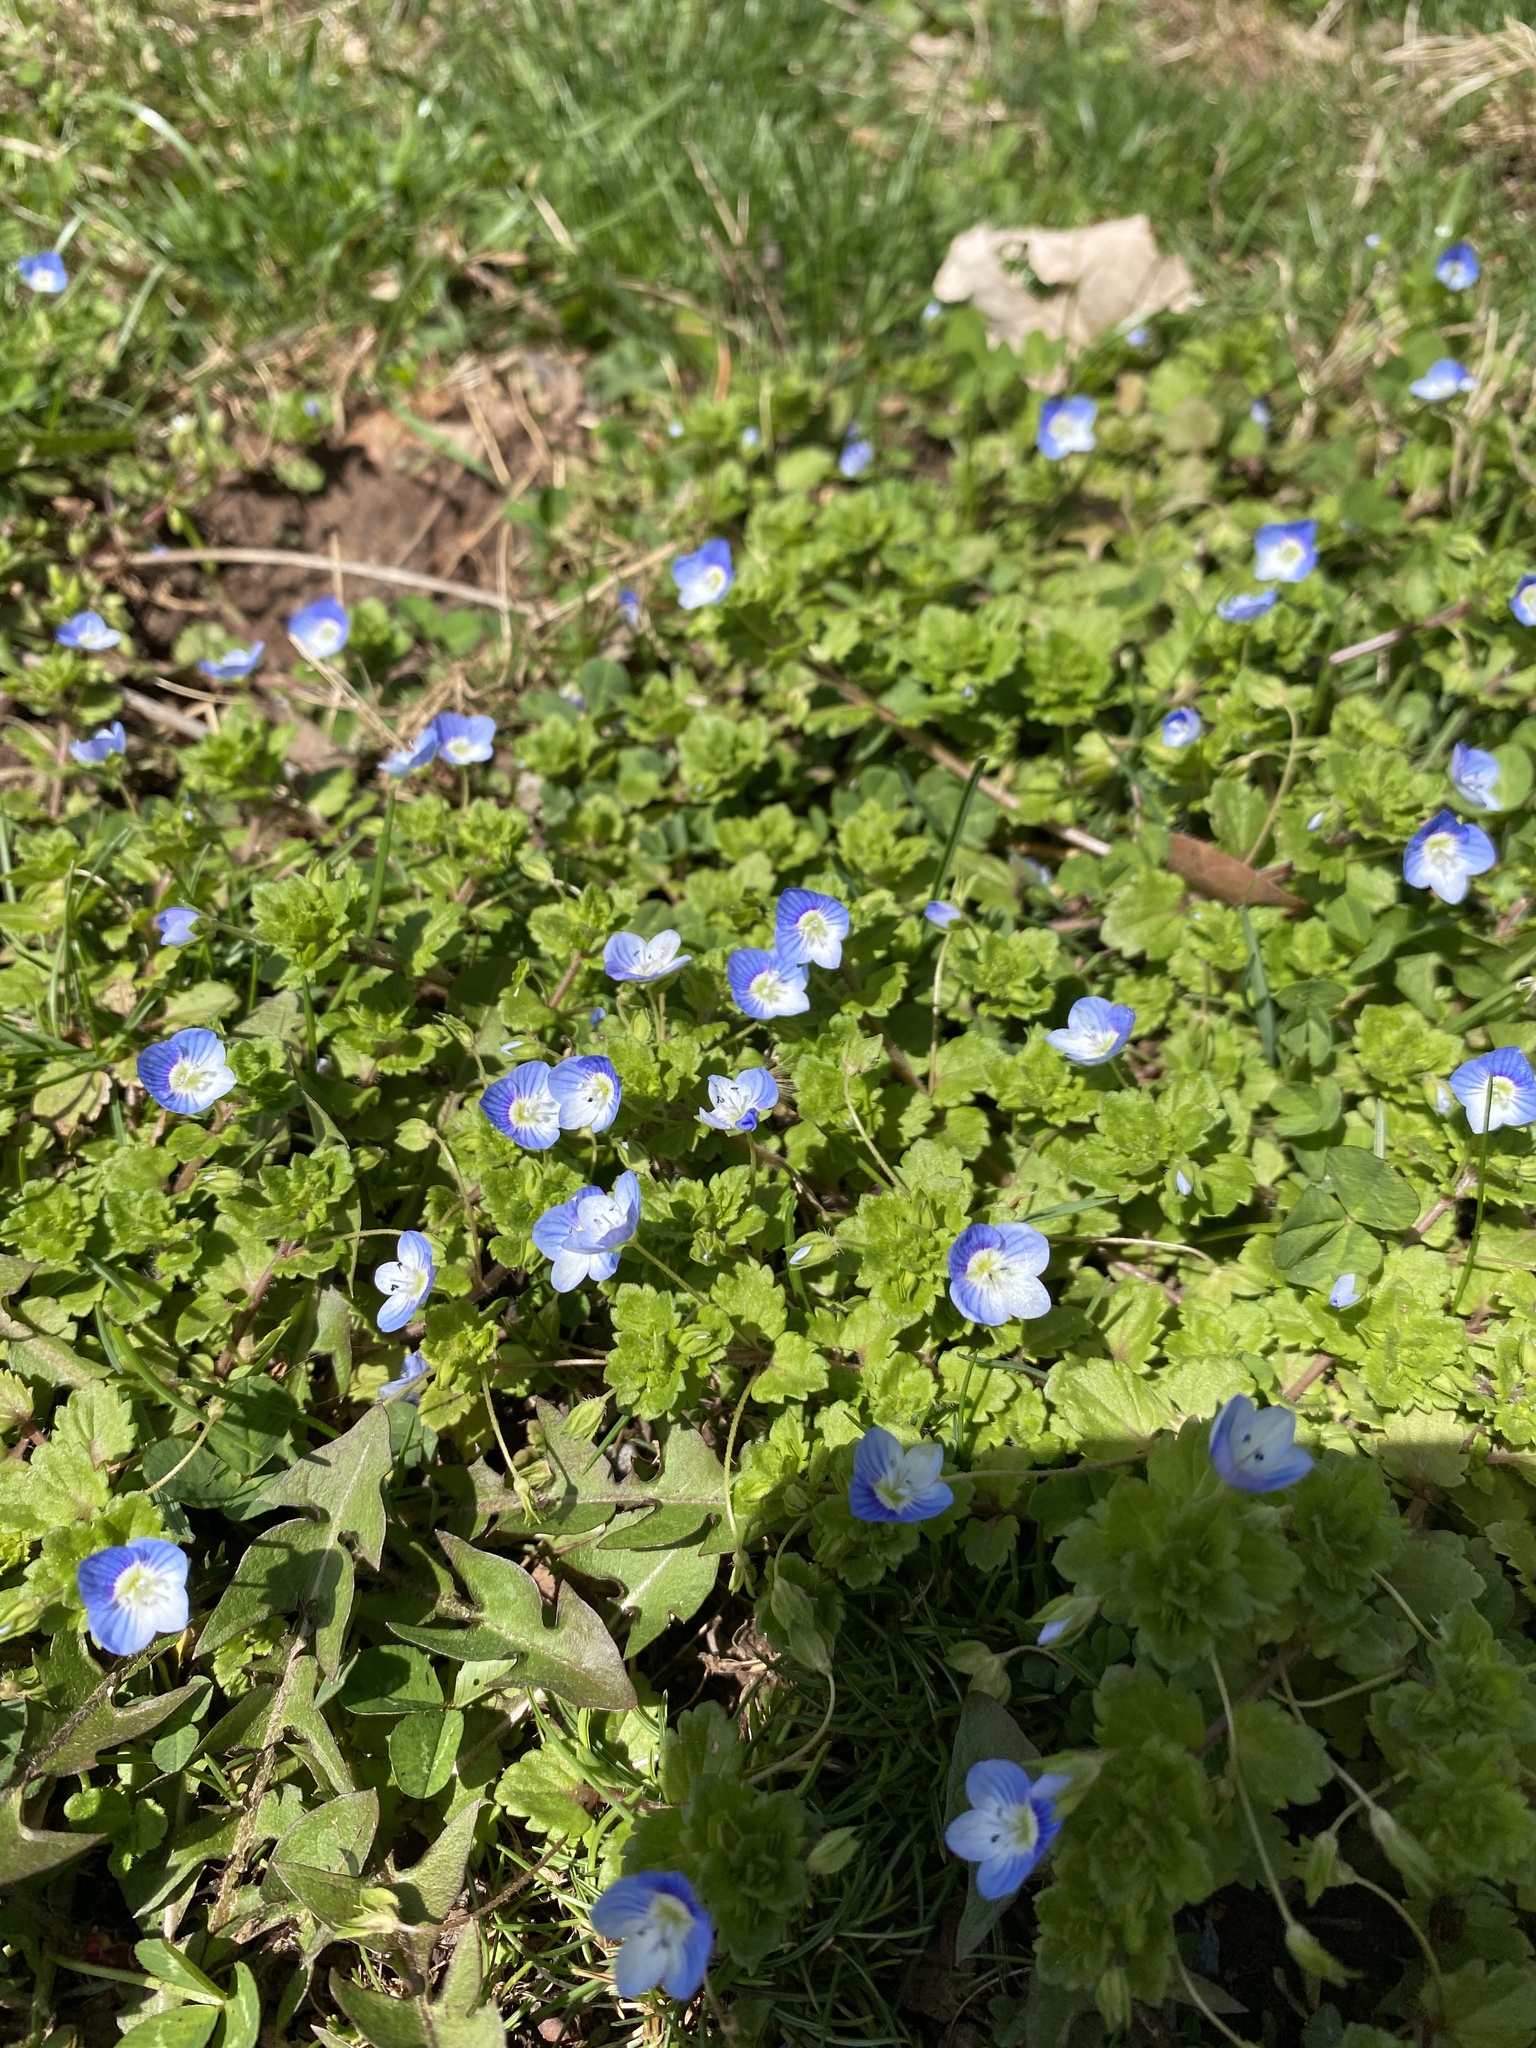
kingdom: Plantae
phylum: Tracheophyta
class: Magnoliopsida
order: Lamiales
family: Plantaginaceae
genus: Veronica
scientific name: Veronica persica
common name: Common field-speedwell
